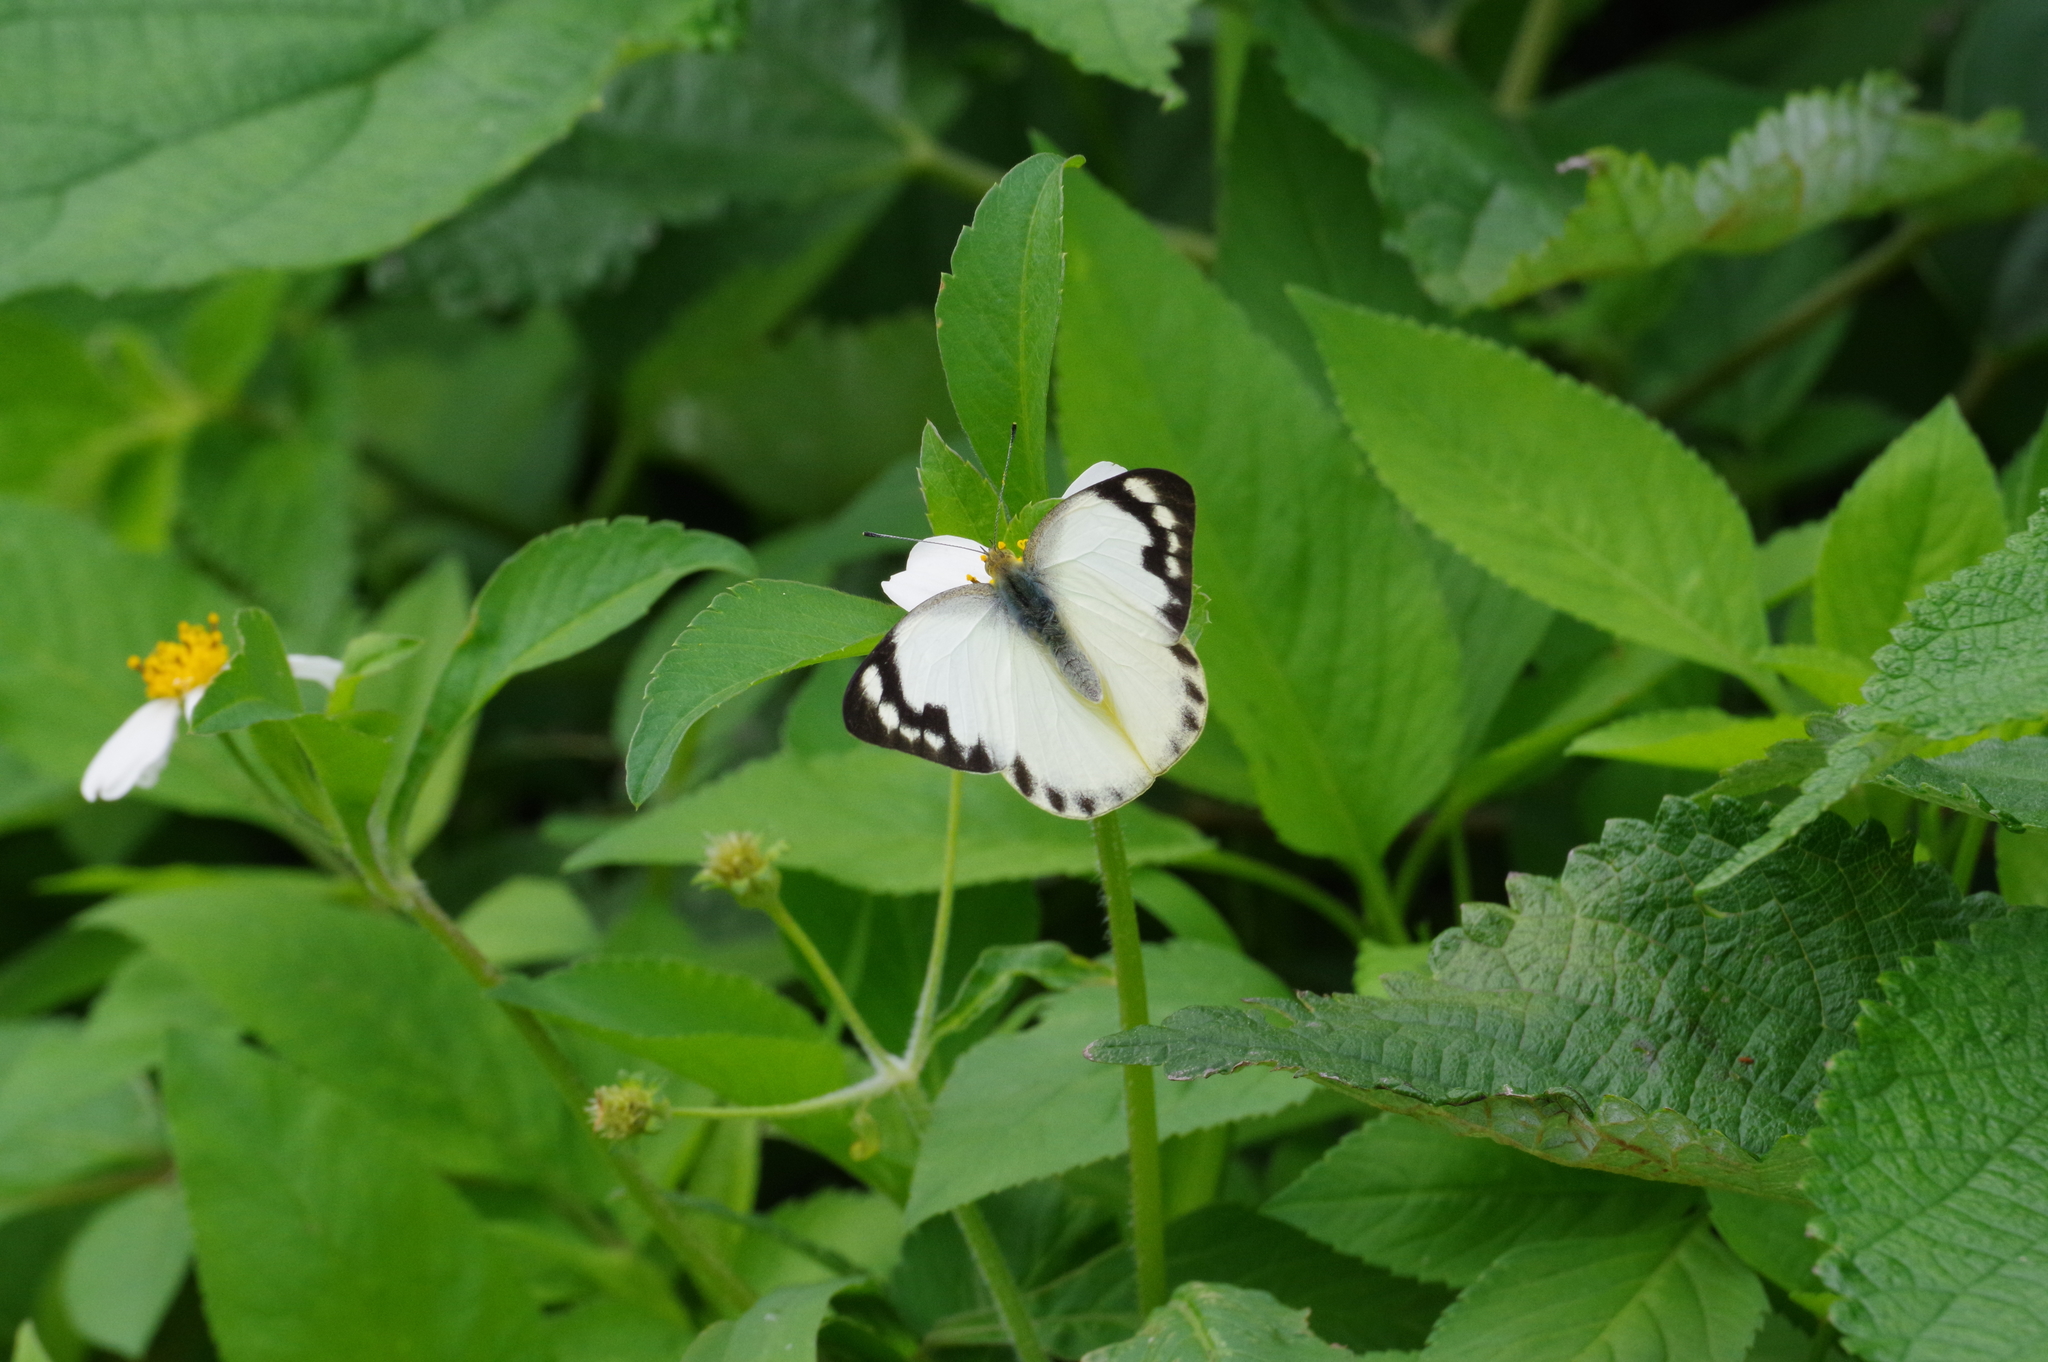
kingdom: Animalia
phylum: Arthropoda
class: Insecta
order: Lepidoptera
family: Pieridae
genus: Appias
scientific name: Appias paulina
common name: Ceylon lesser albatross
